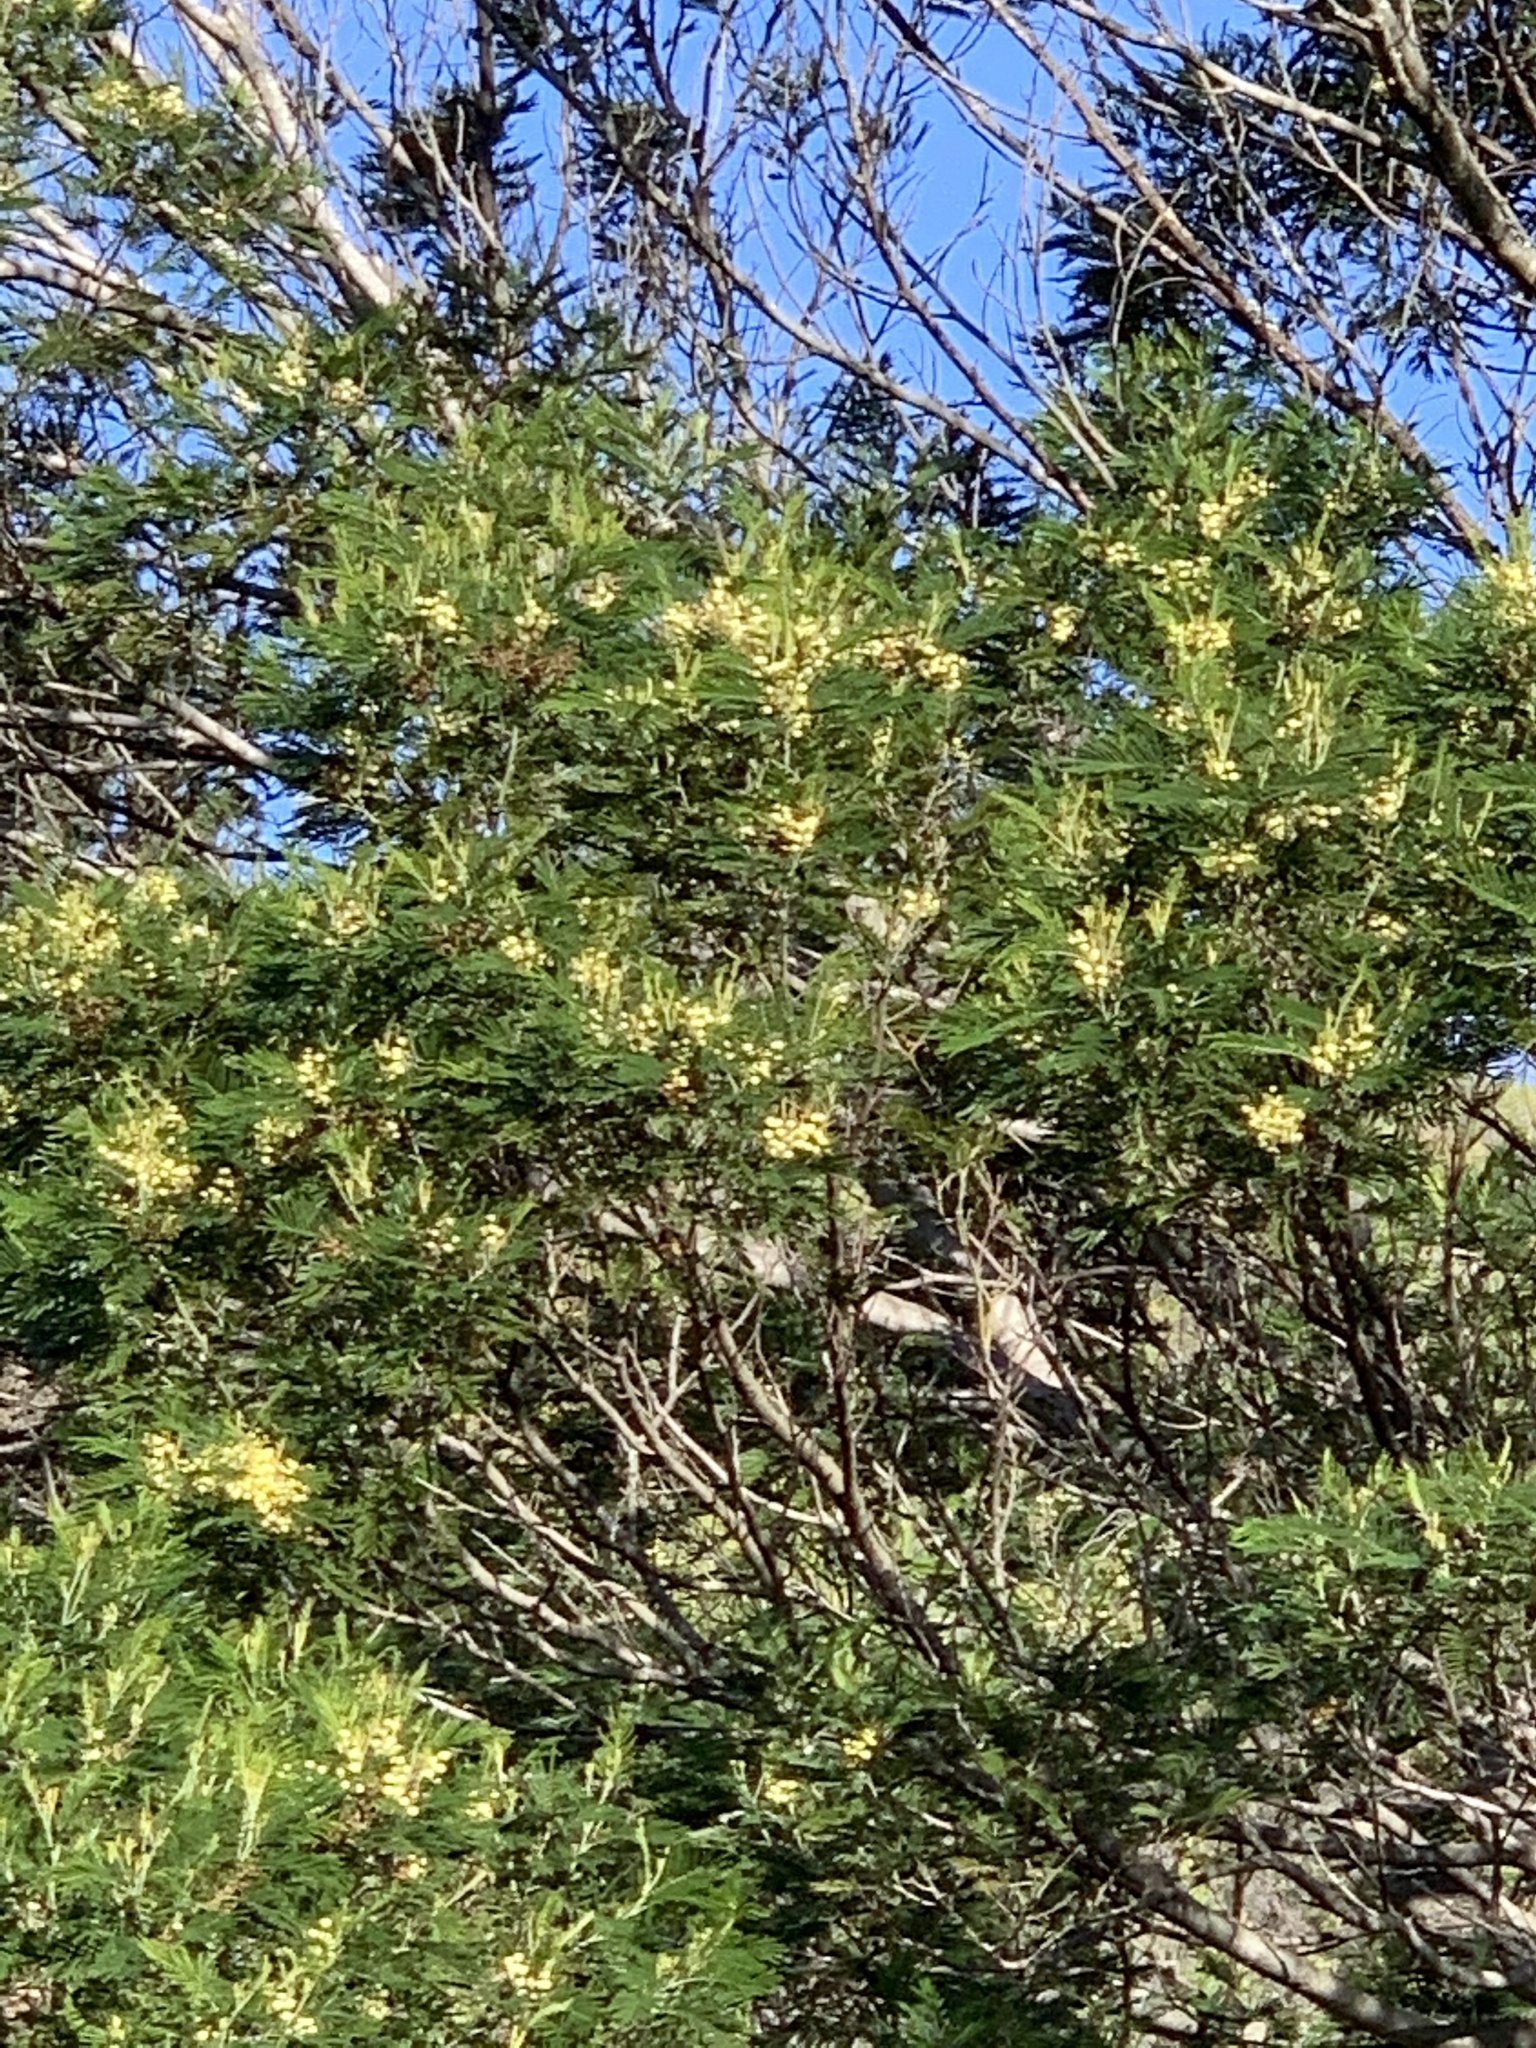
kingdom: Plantae
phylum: Tracheophyta
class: Magnoliopsida
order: Fabales
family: Fabaceae
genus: Acacia
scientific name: Acacia mearnsii
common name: Black wattle
